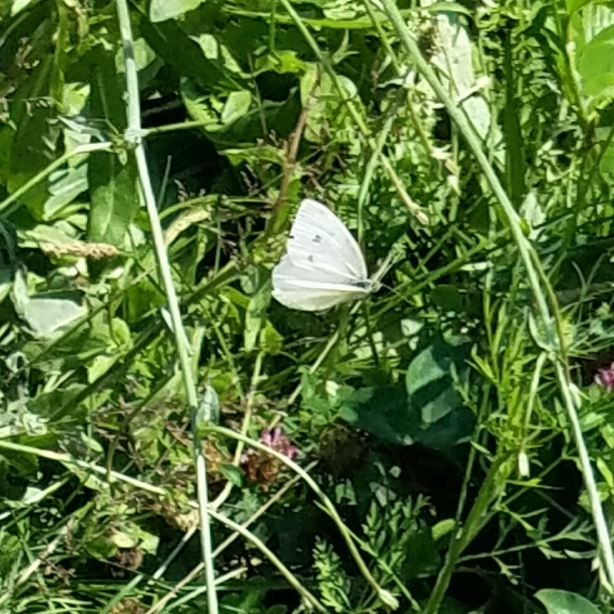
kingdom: Animalia
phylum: Arthropoda
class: Insecta
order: Lepidoptera
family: Pieridae
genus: Pieris
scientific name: Pieris rapae
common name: Small white
